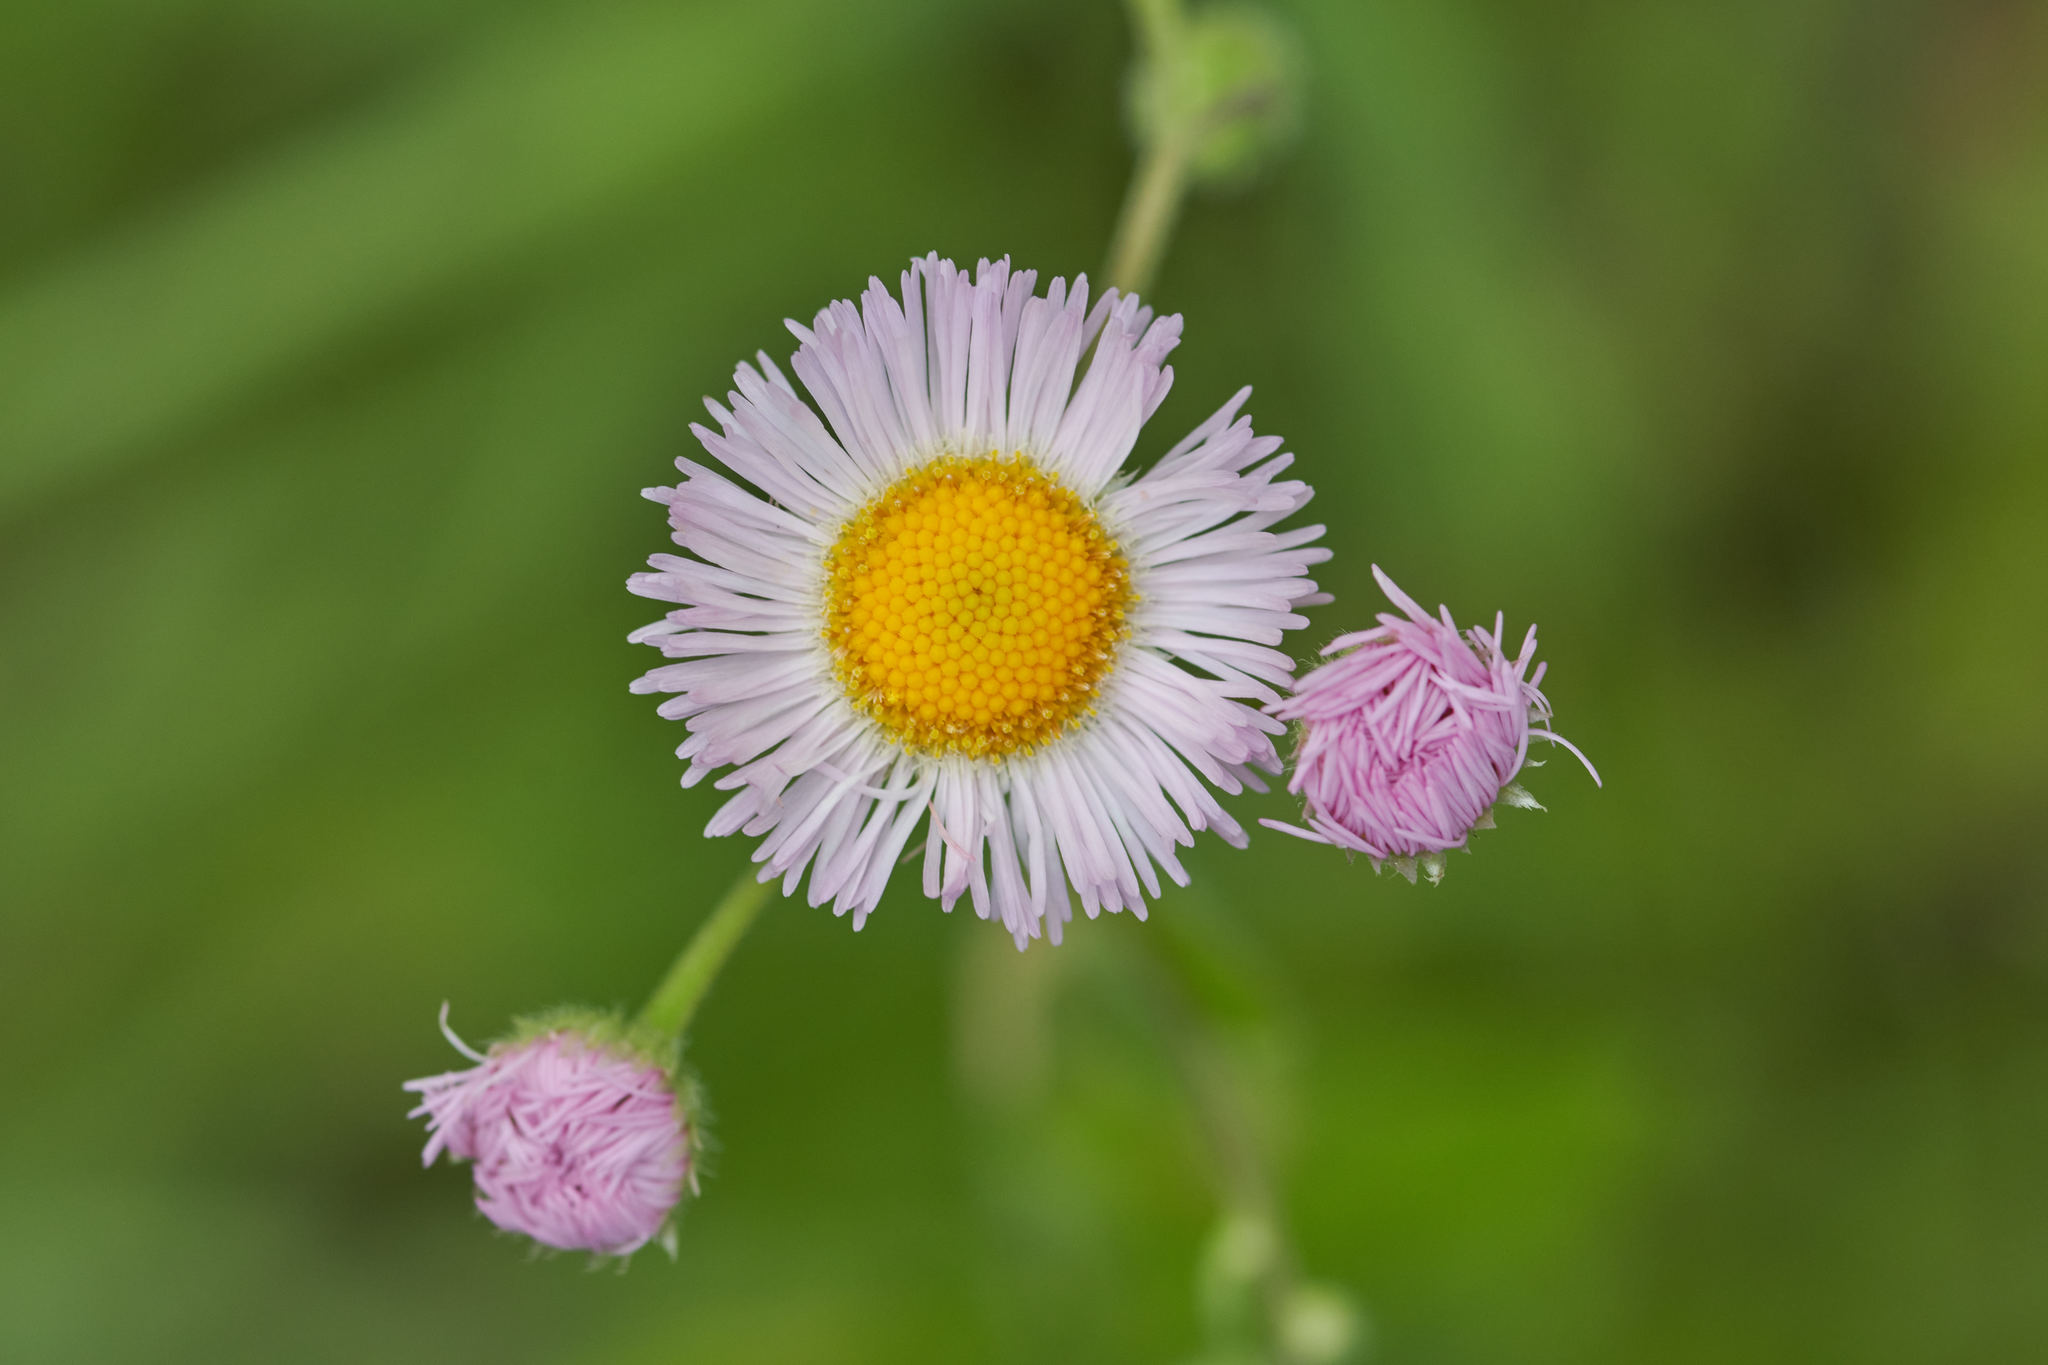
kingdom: Plantae
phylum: Tracheophyta
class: Magnoliopsida
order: Asterales
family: Asteraceae
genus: Erigeron
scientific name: Erigeron philadelphicus
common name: Robin's-plantain
